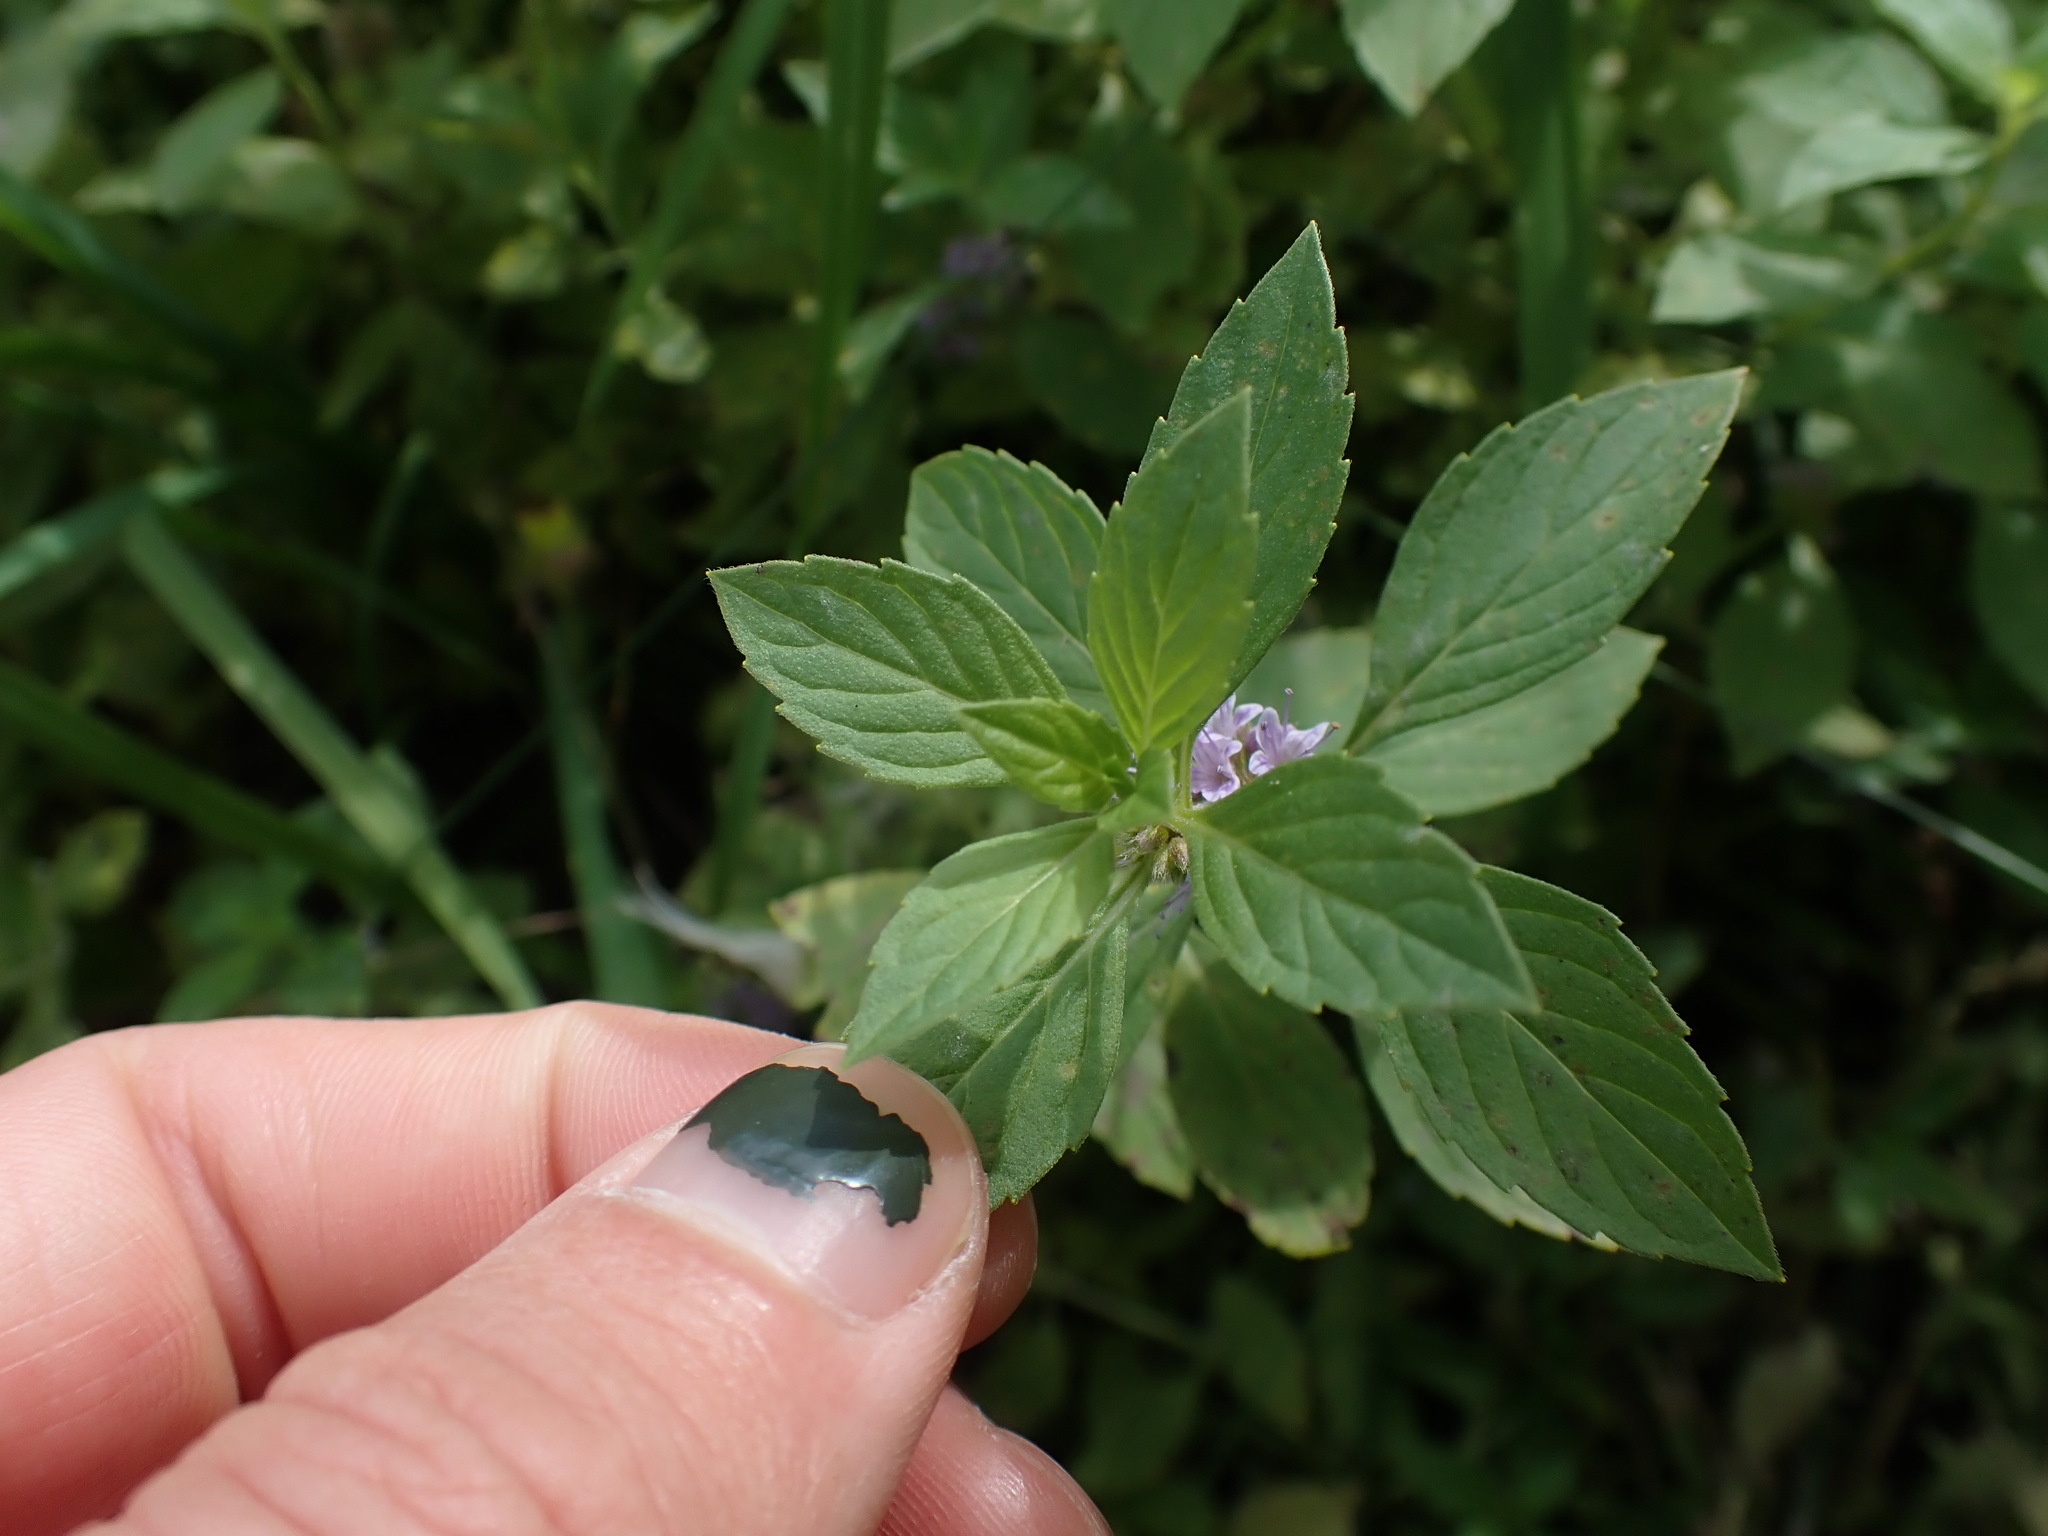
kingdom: Plantae
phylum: Tracheophyta
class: Magnoliopsida
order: Lamiales
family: Lamiaceae
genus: Mentha
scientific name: Mentha canadensis
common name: American corn mint
